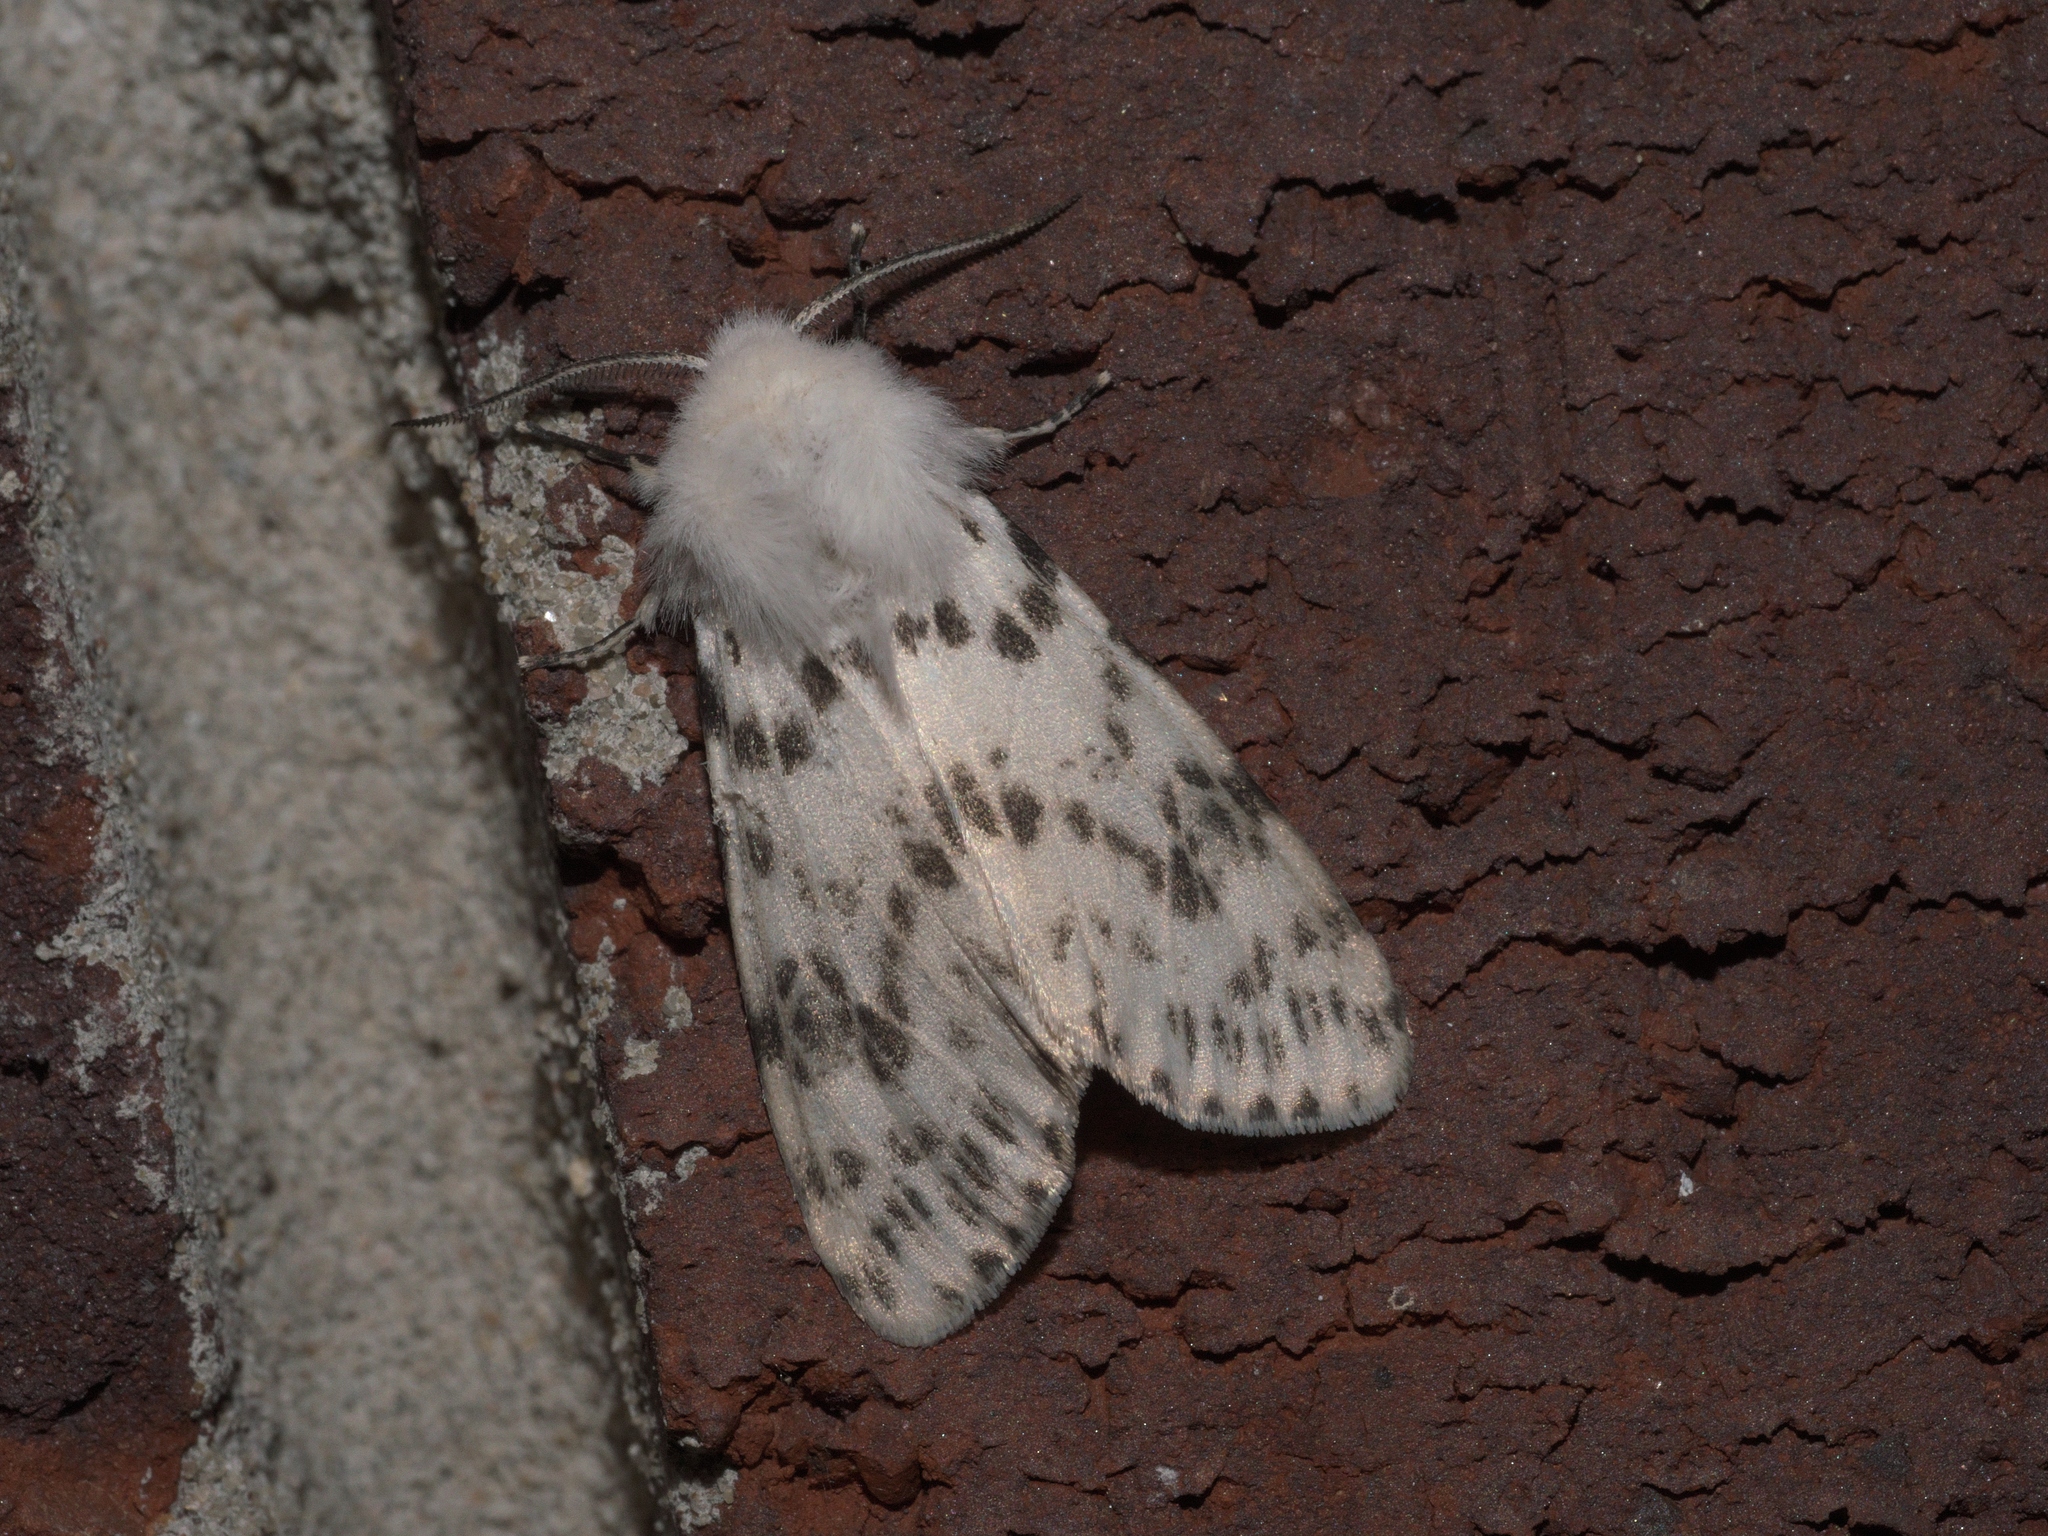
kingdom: Animalia
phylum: Arthropoda
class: Insecta
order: Lepidoptera
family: Erebidae
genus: Hyphantria
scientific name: Hyphantria cunea
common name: American white moth
